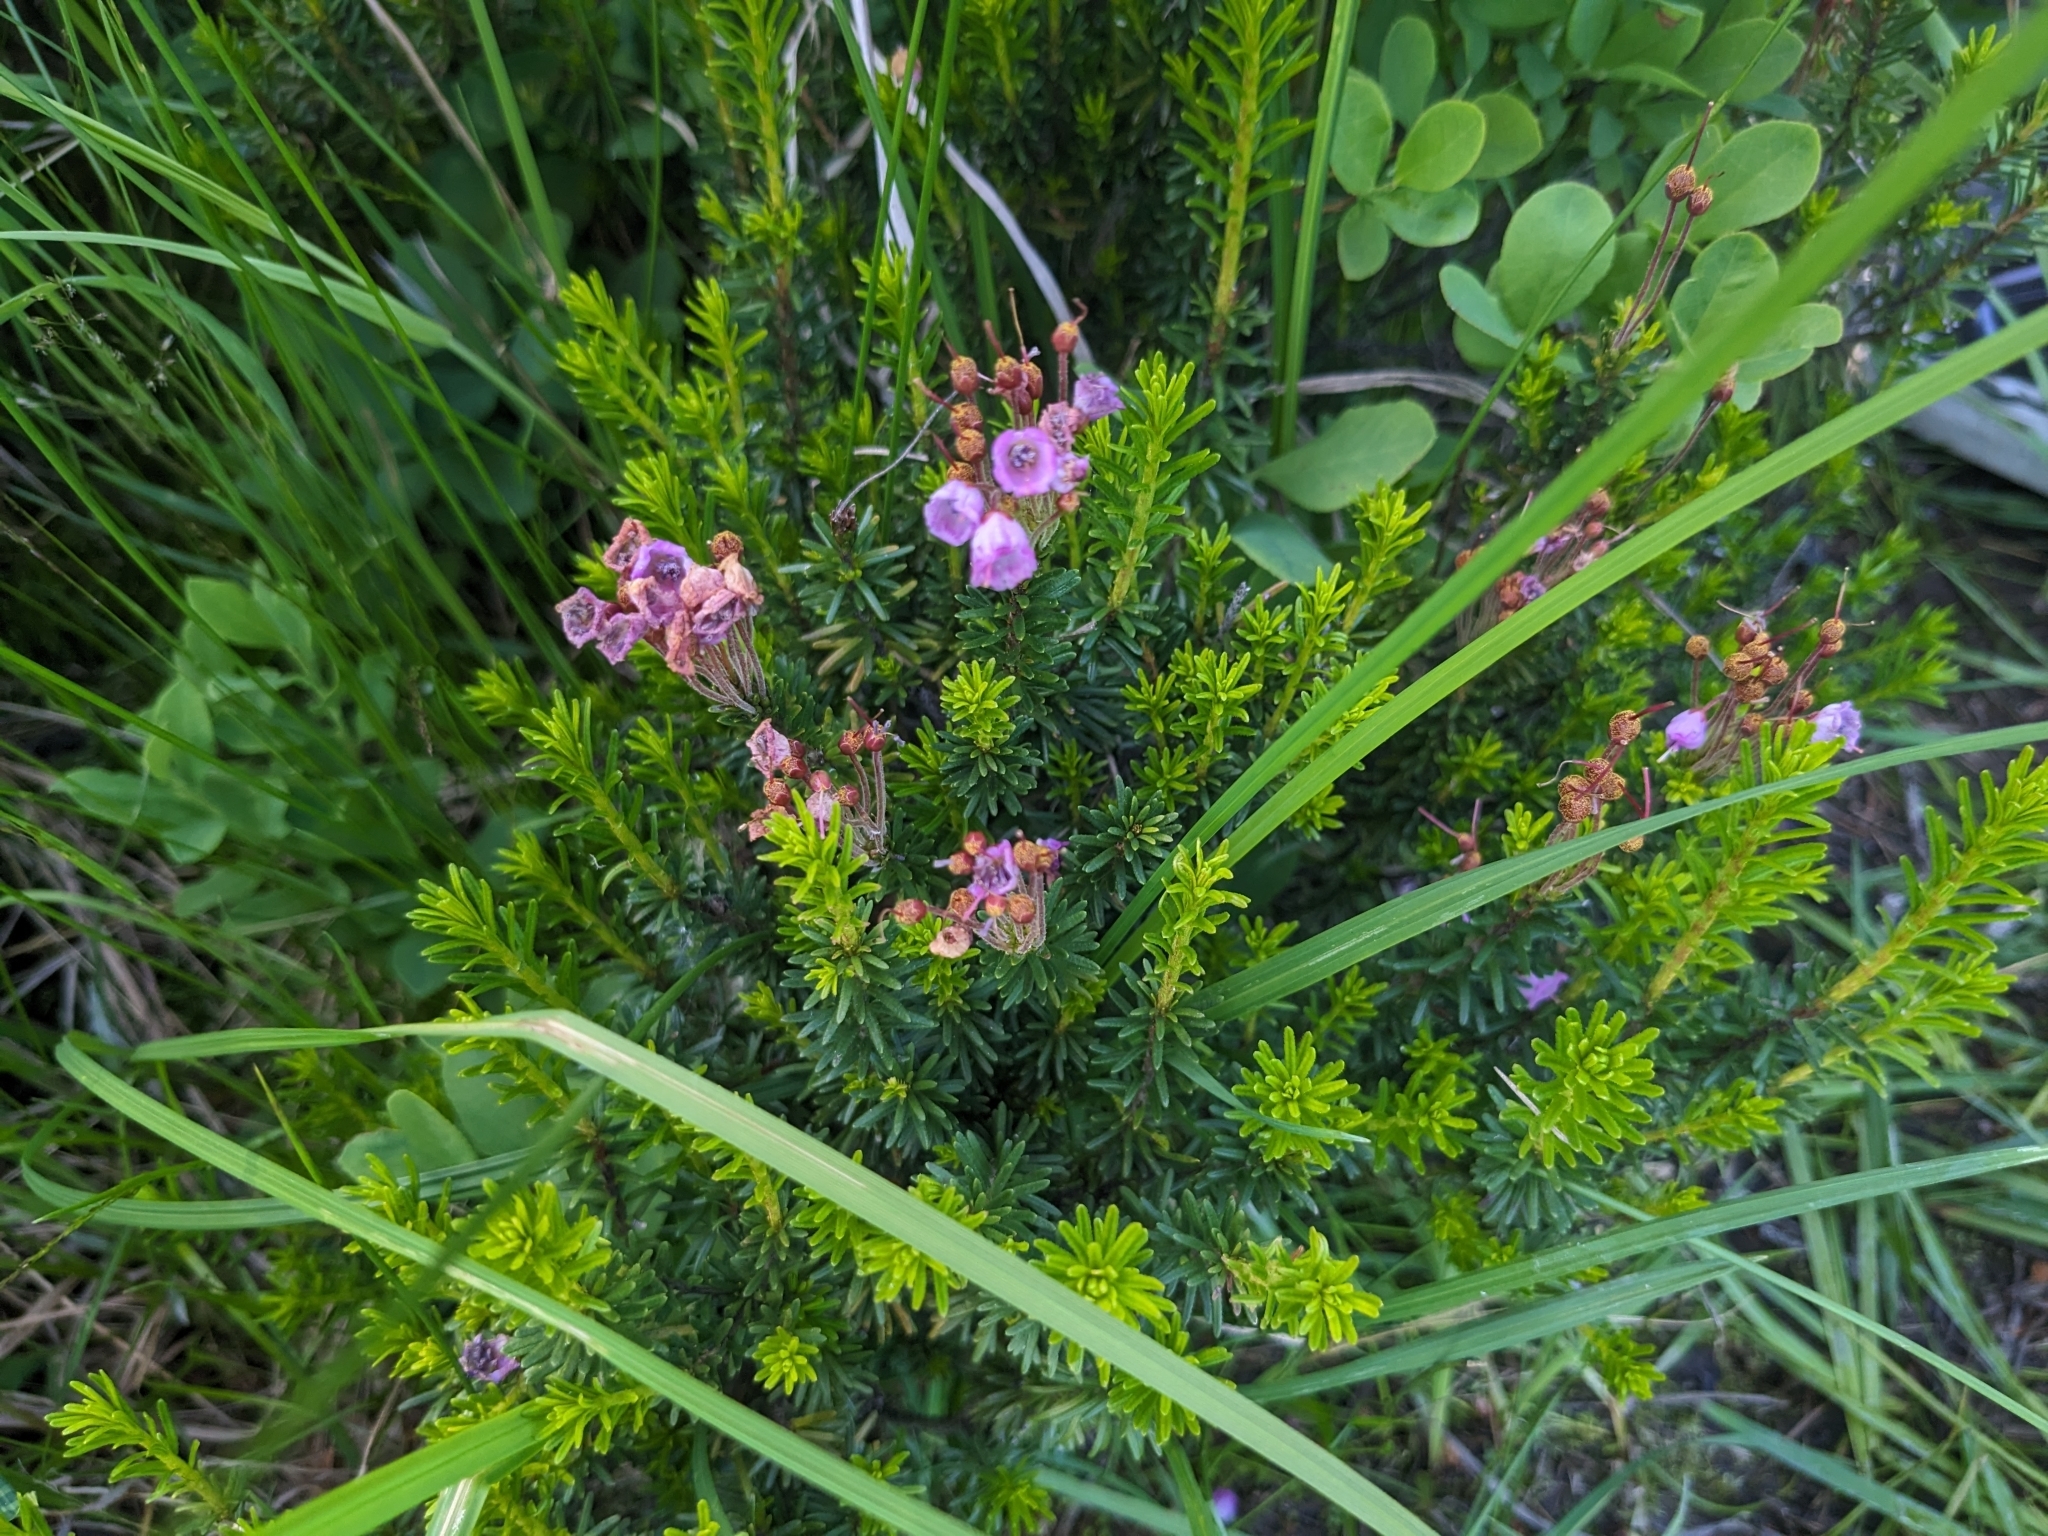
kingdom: Plantae
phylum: Tracheophyta
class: Magnoliopsida
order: Ericales
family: Ericaceae
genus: Phyllodoce
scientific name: Phyllodoce empetriformis
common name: Pink mountain heather
